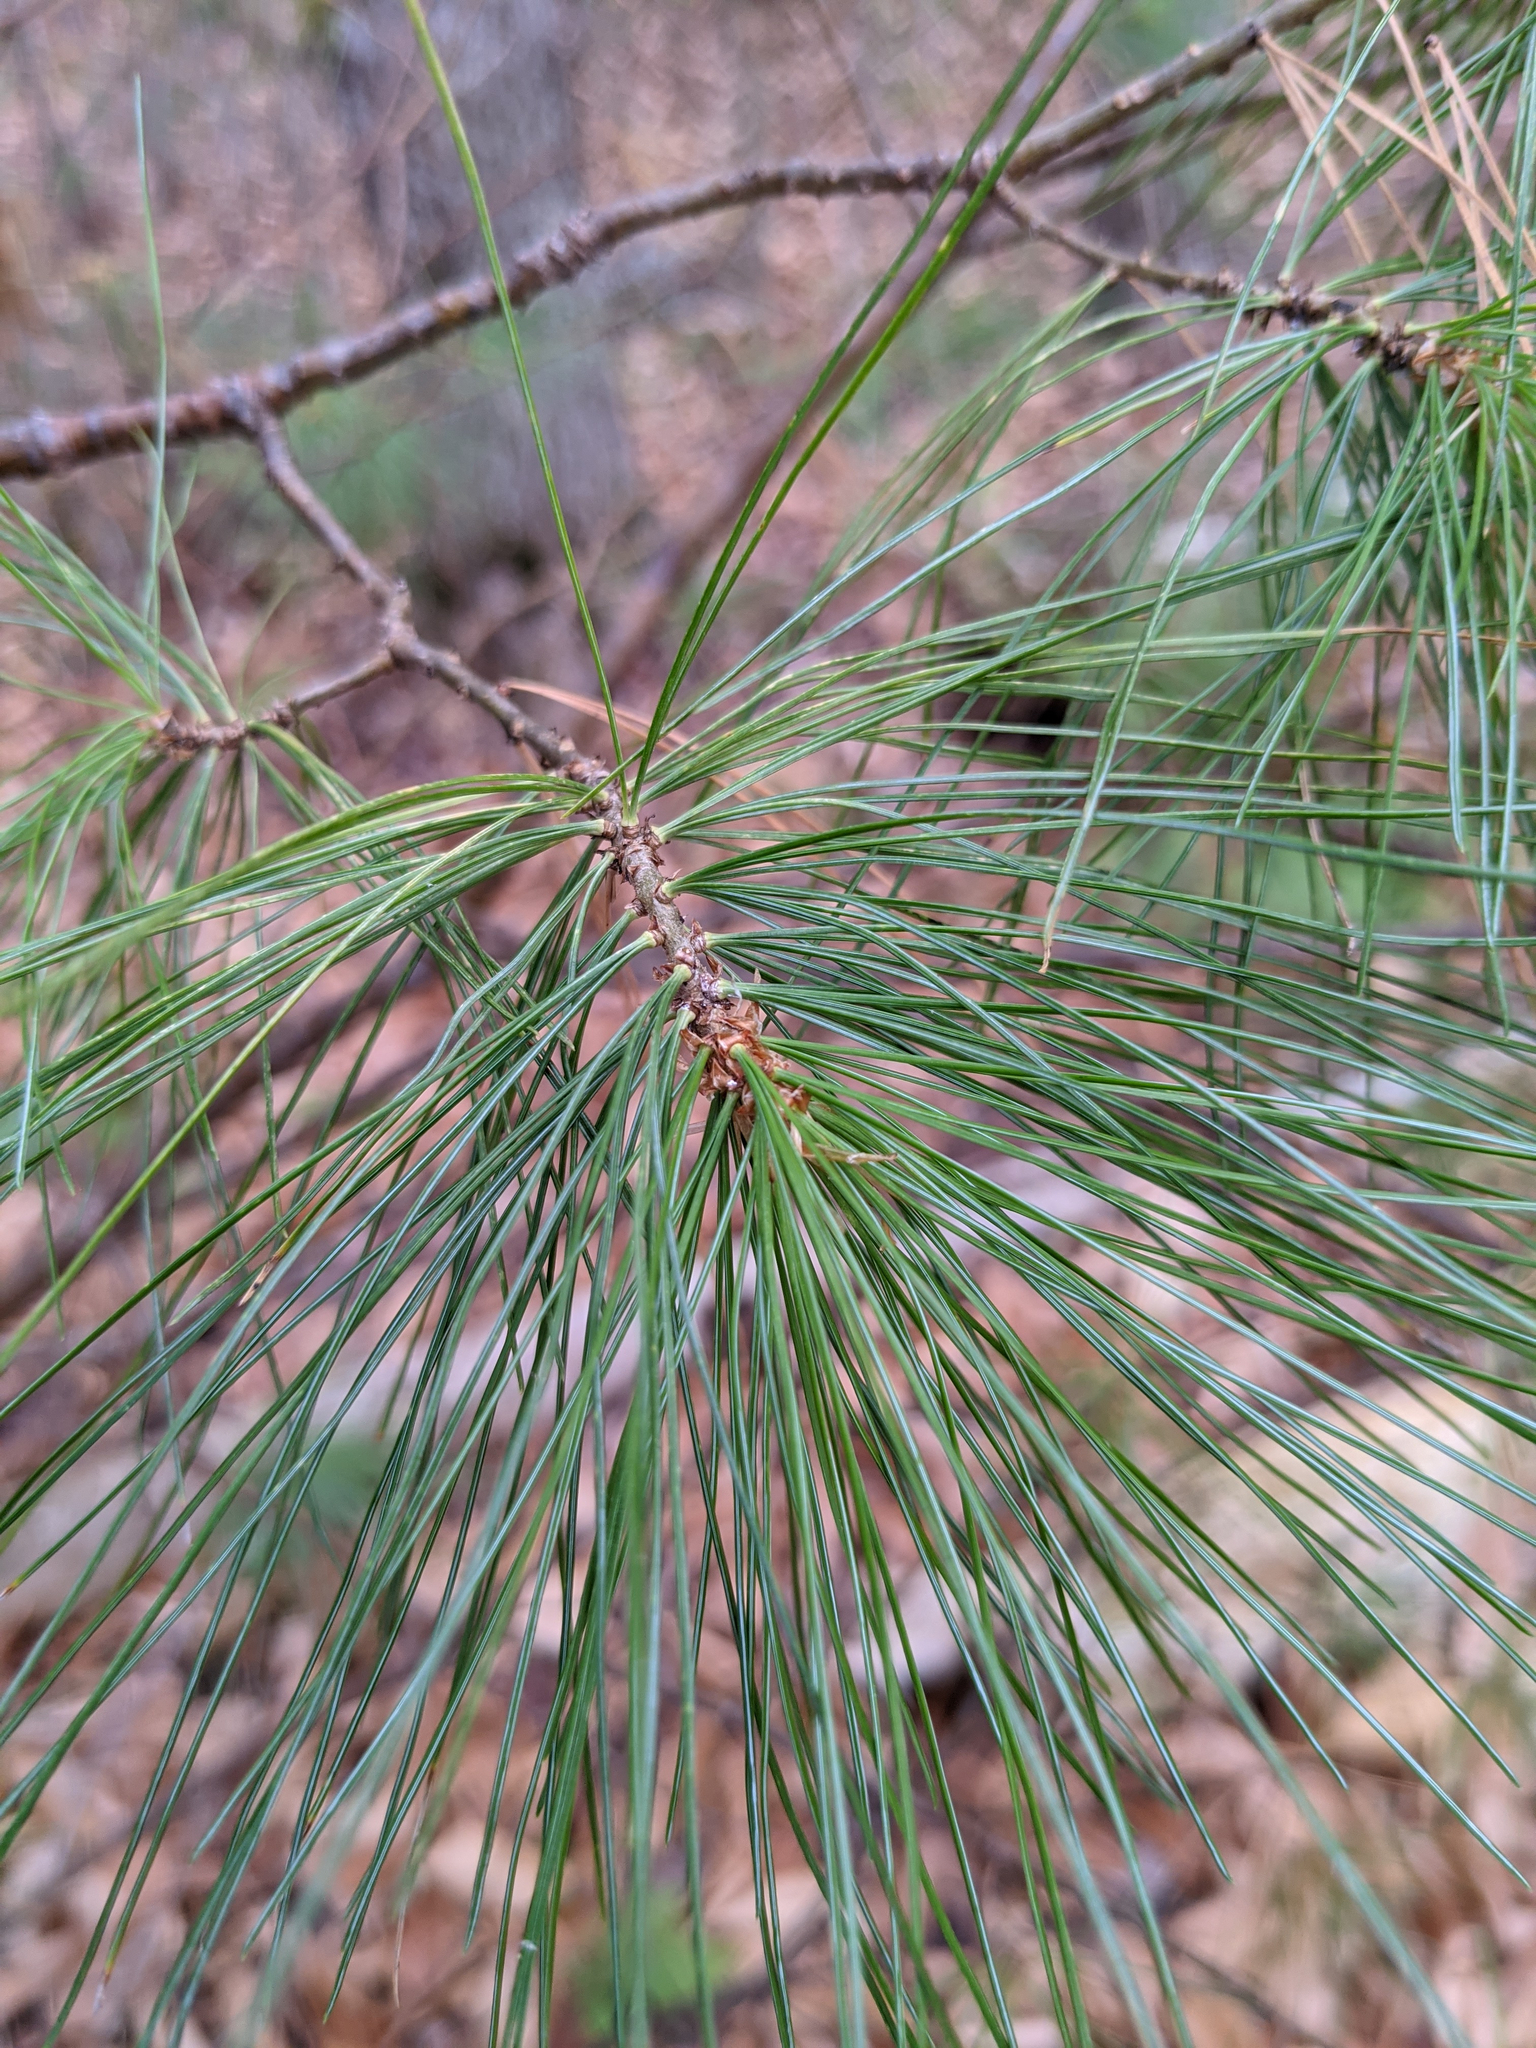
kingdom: Plantae
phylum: Tracheophyta
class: Pinopsida
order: Pinales
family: Pinaceae
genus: Pinus
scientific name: Pinus strobus
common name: Weymouth pine
